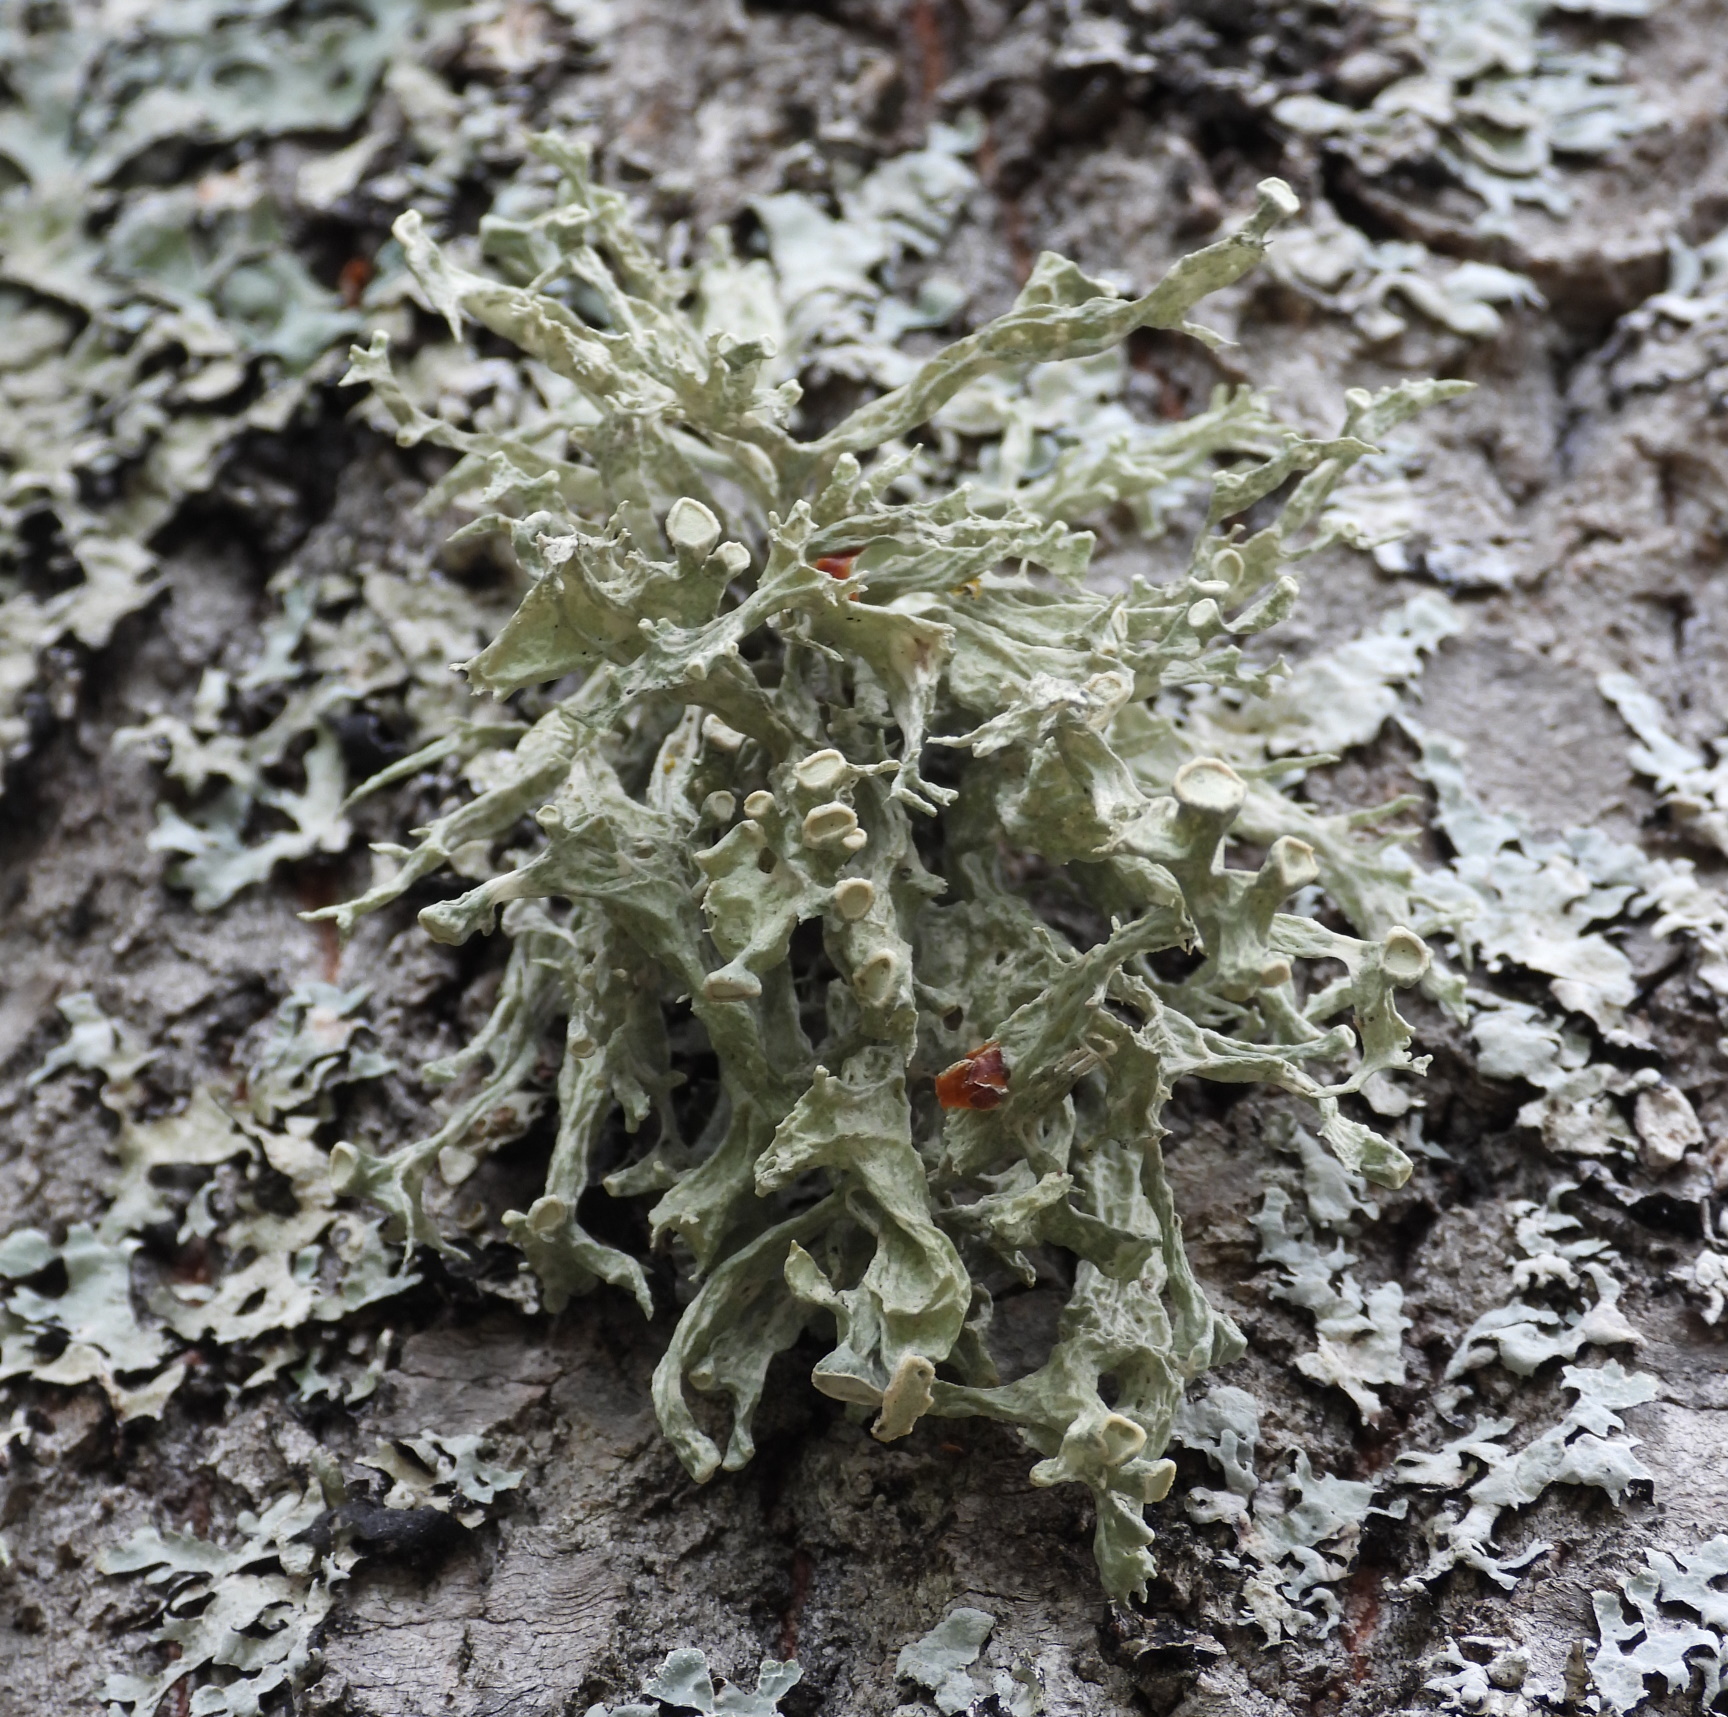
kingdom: Fungi
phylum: Ascomycota
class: Lecanoromycetes
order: Lecanorales
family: Ramalinaceae
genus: Ramalina
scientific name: Ramalina fastigiata
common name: Dotted ribbon lichen
